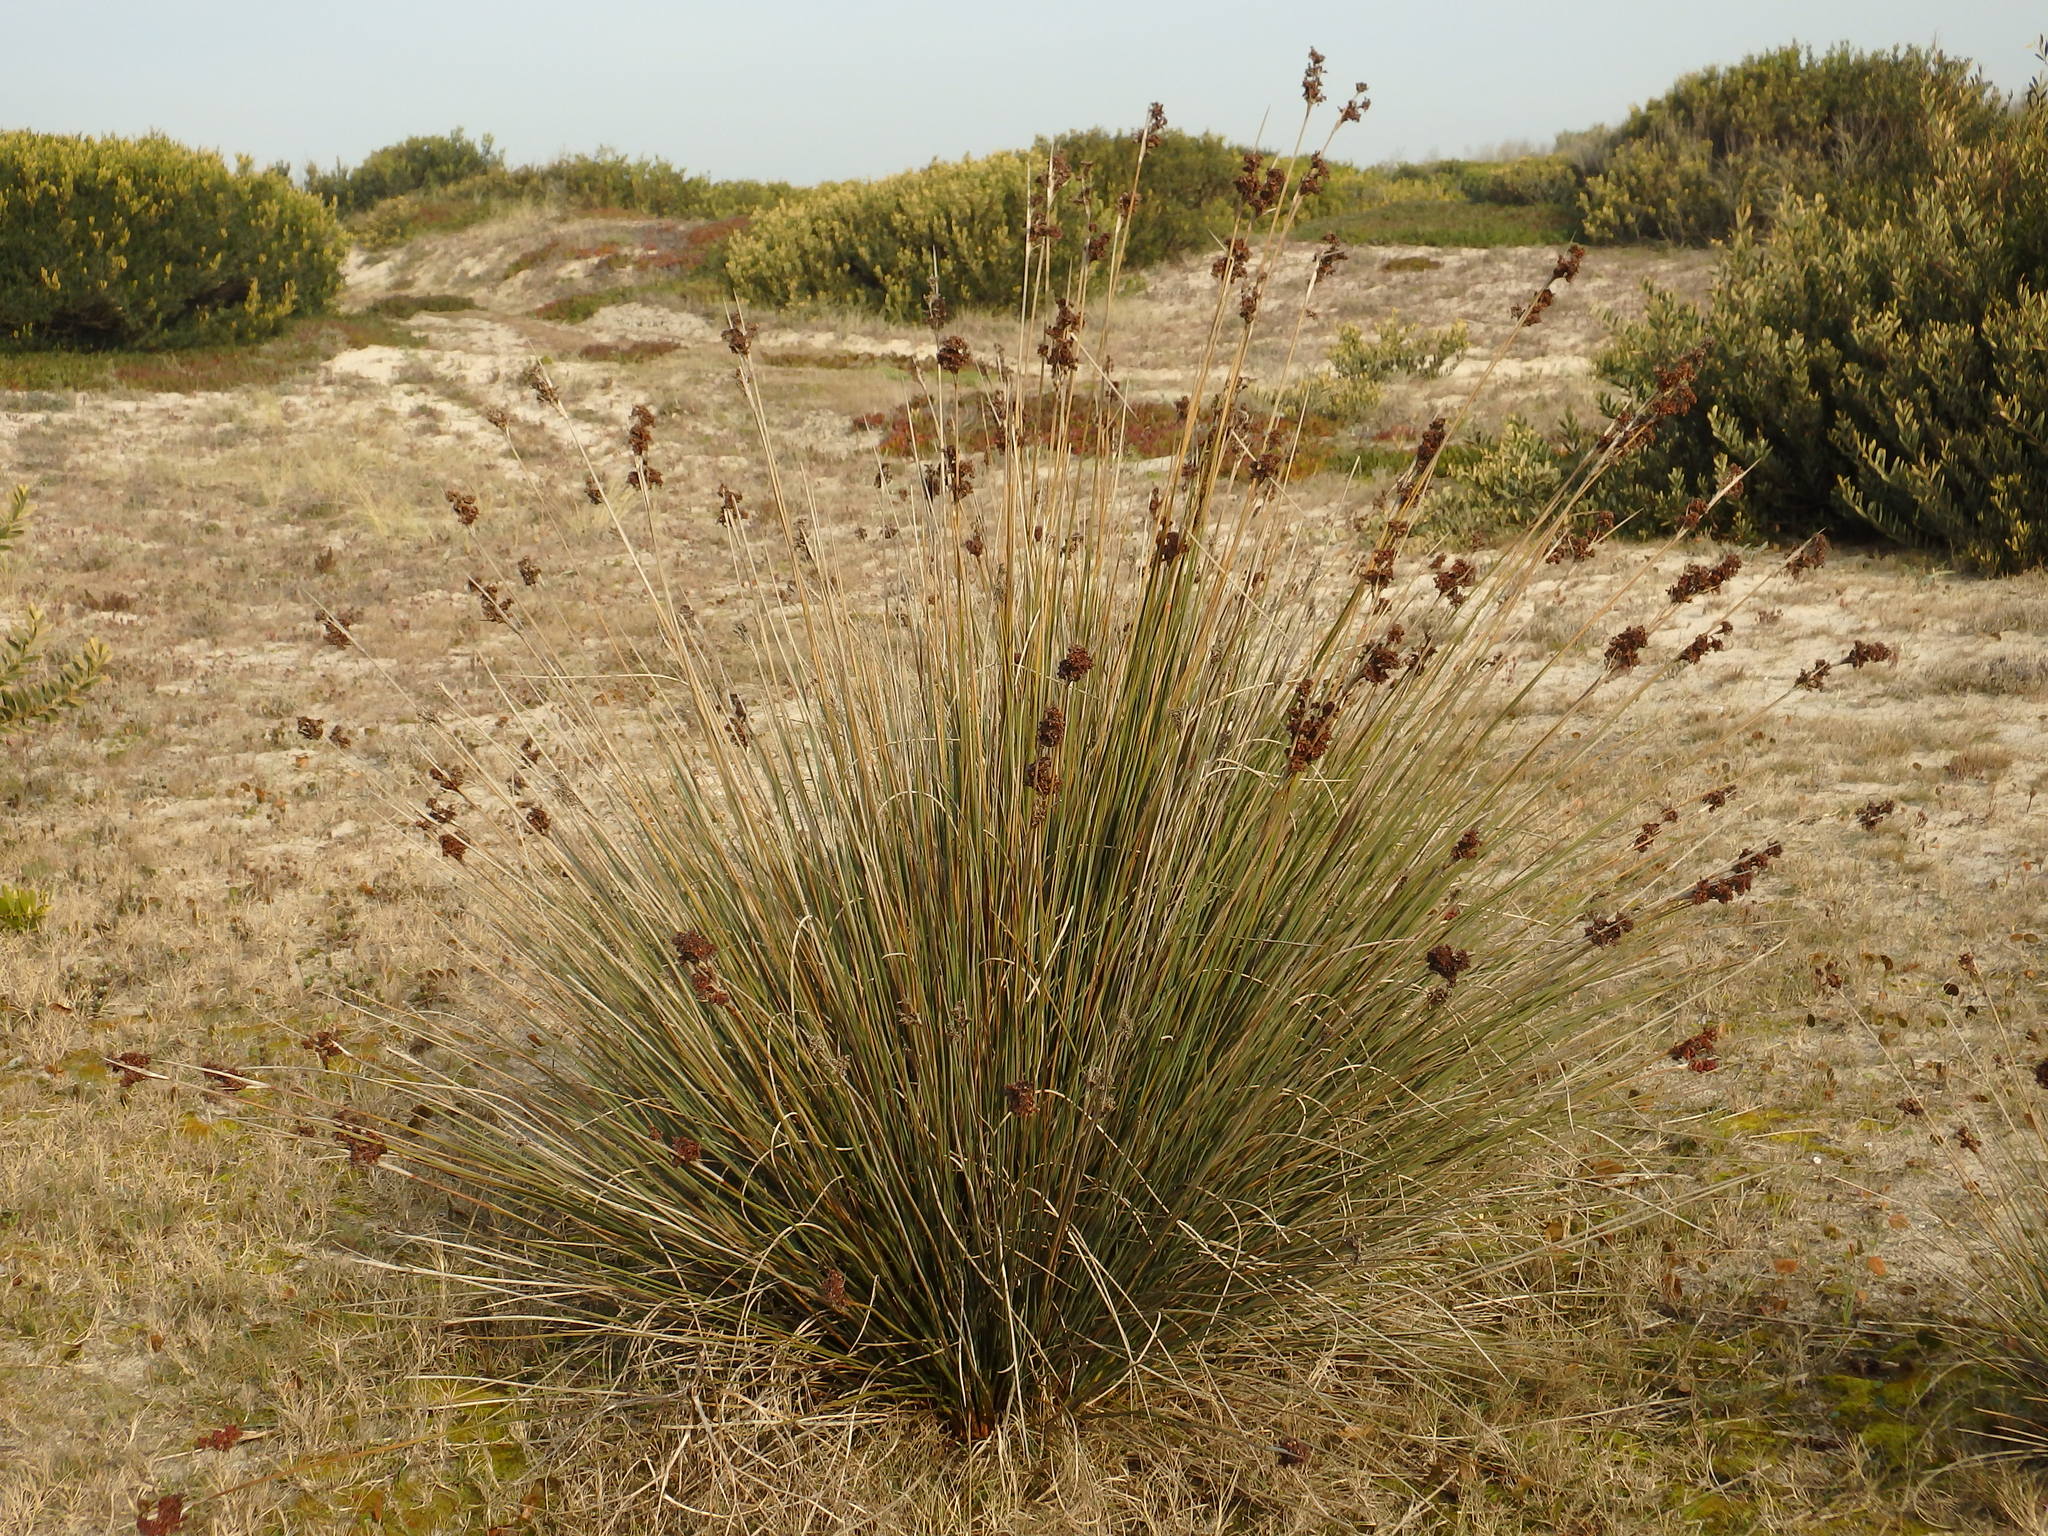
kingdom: Plantae
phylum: Tracheophyta
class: Liliopsida
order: Poales
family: Juncaceae
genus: Juncus
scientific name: Juncus acutus
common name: Sharp rush
